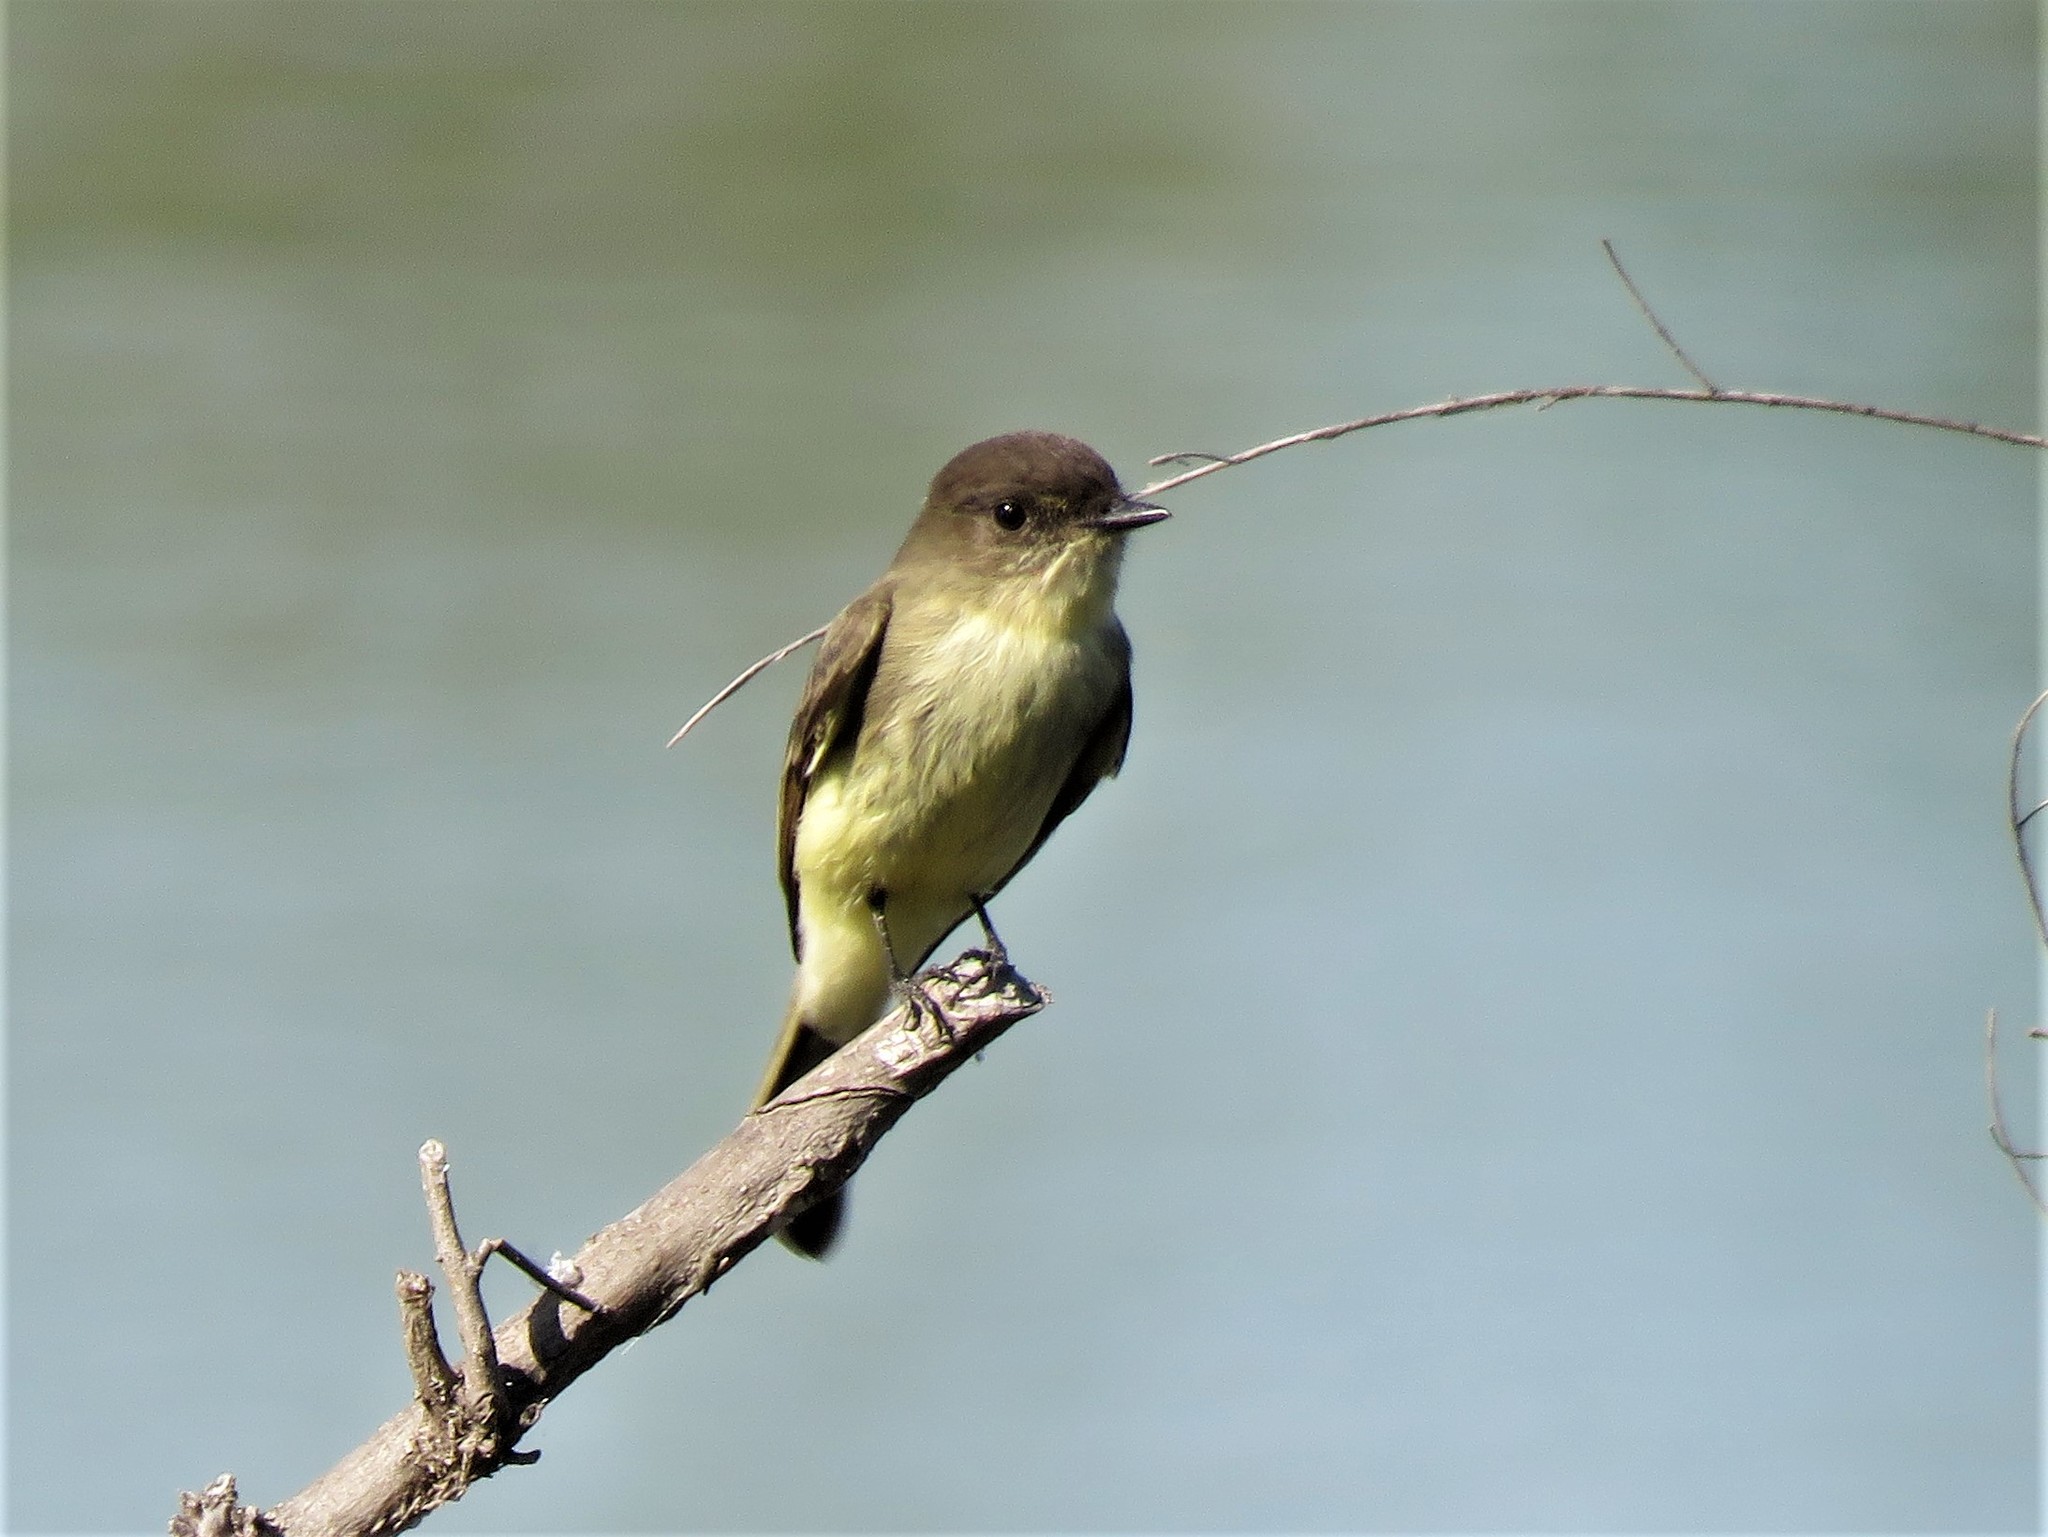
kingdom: Animalia
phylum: Chordata
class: Aves
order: Passeriformes
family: Tyrannidae
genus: Sayornis
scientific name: Sayornis phoebe
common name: Eastern phoebe
